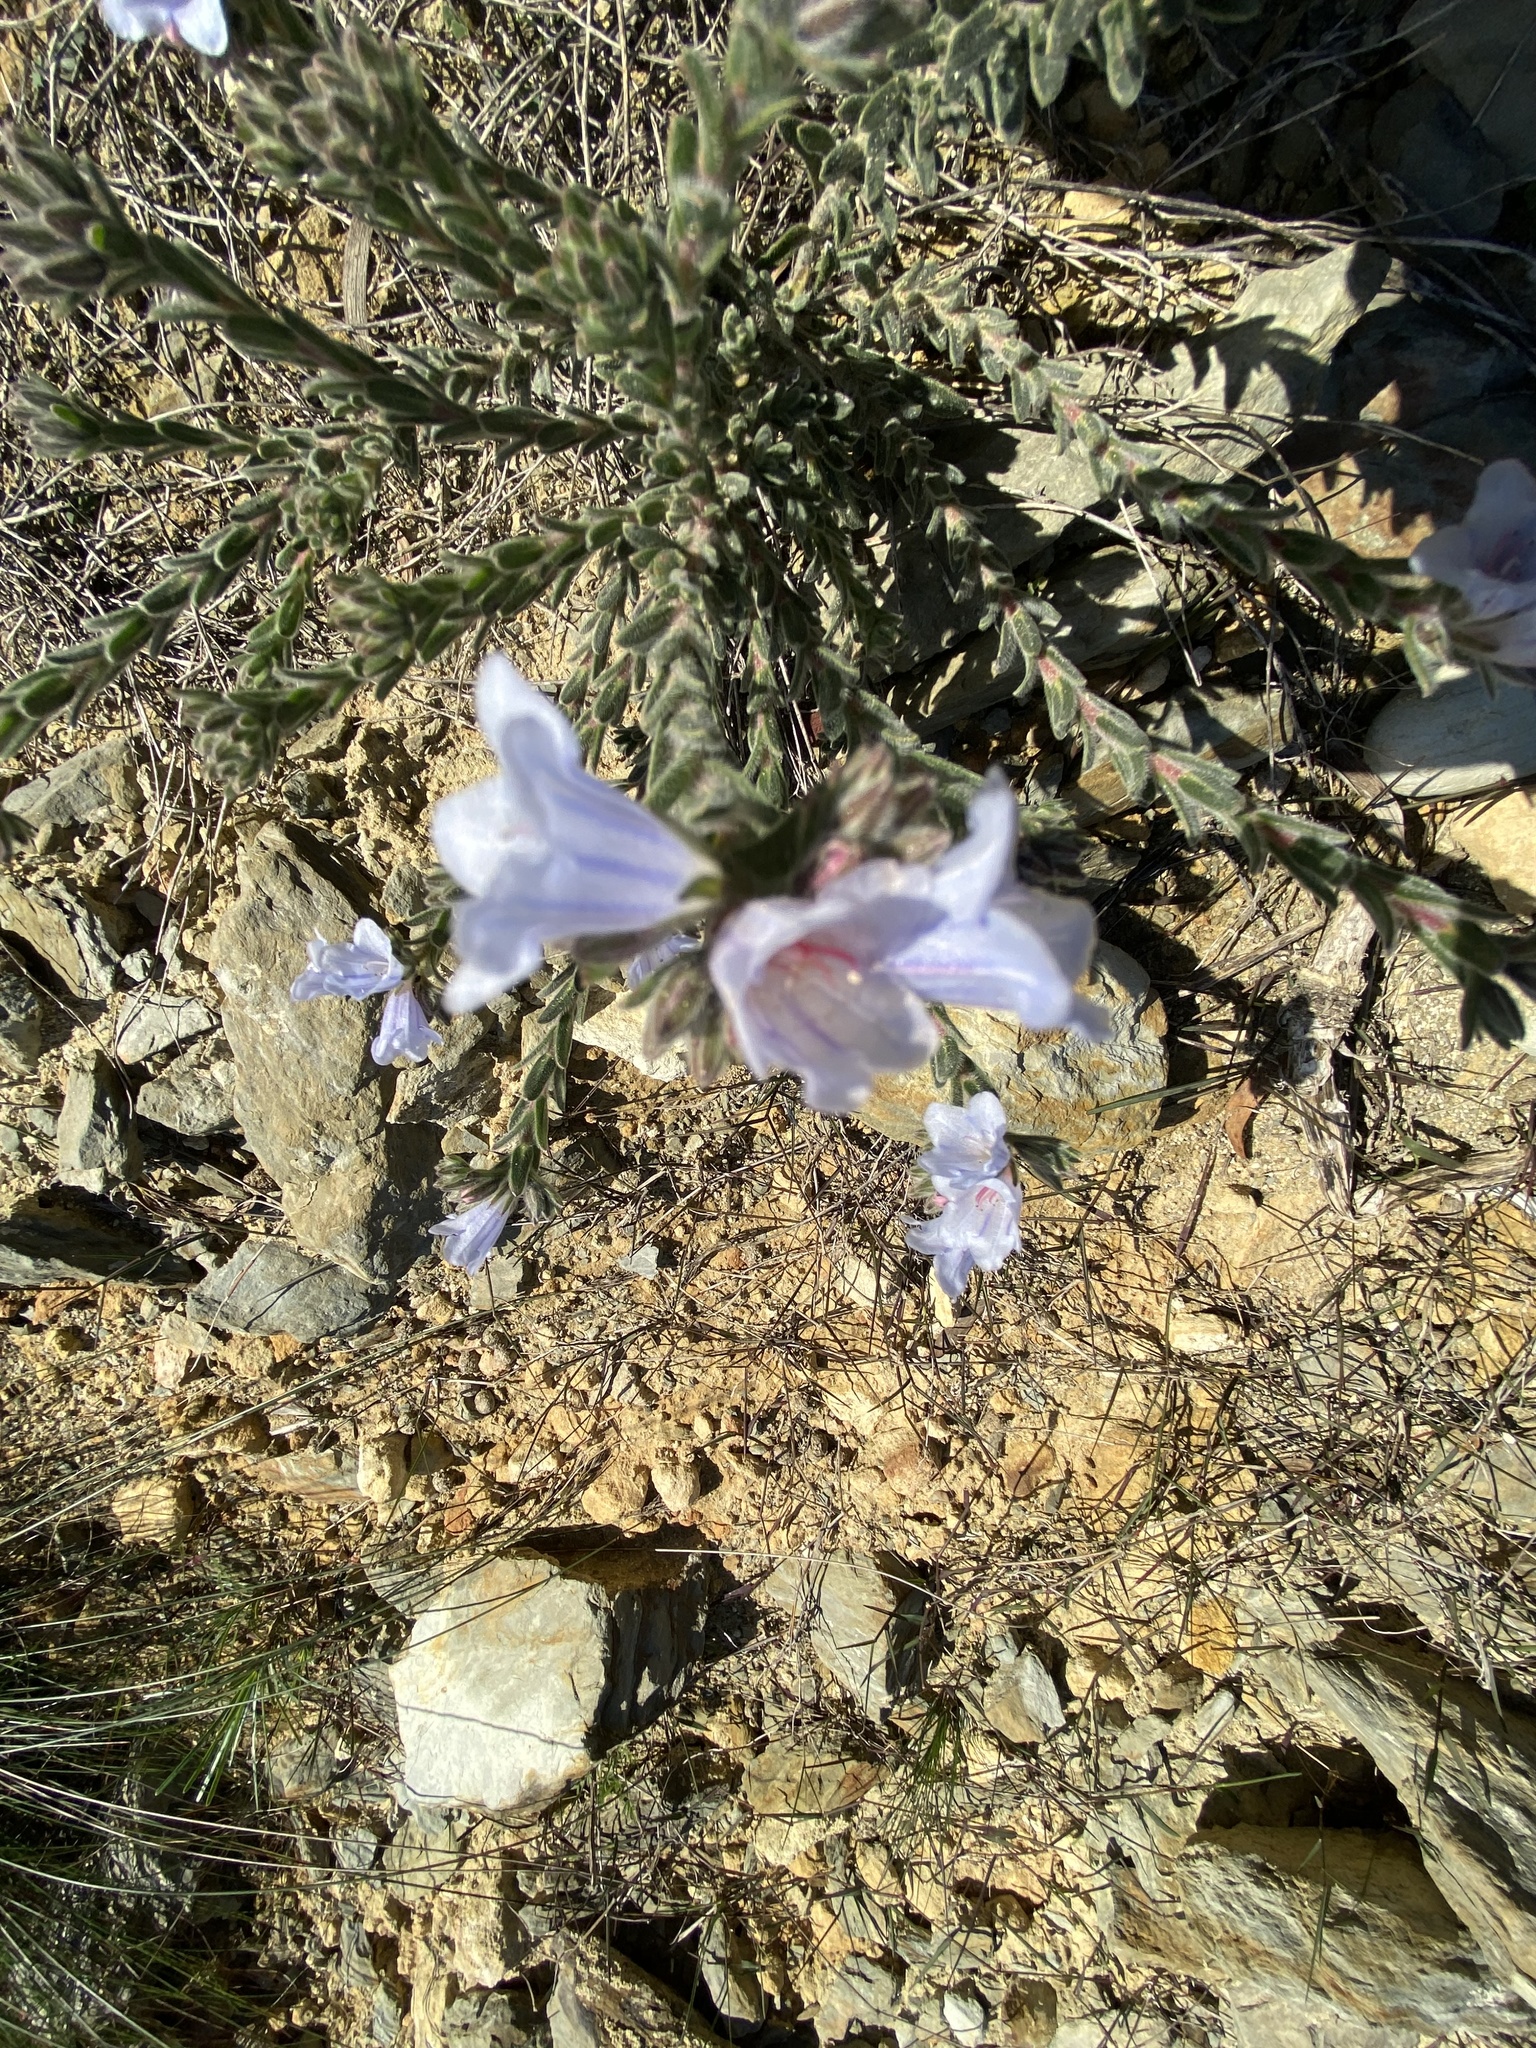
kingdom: Plantae
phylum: Tracheophyta
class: Magnoliopsida
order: Boraginales
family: Boraginaceae
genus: Lobostemon
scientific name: Lobostemon trigonus
